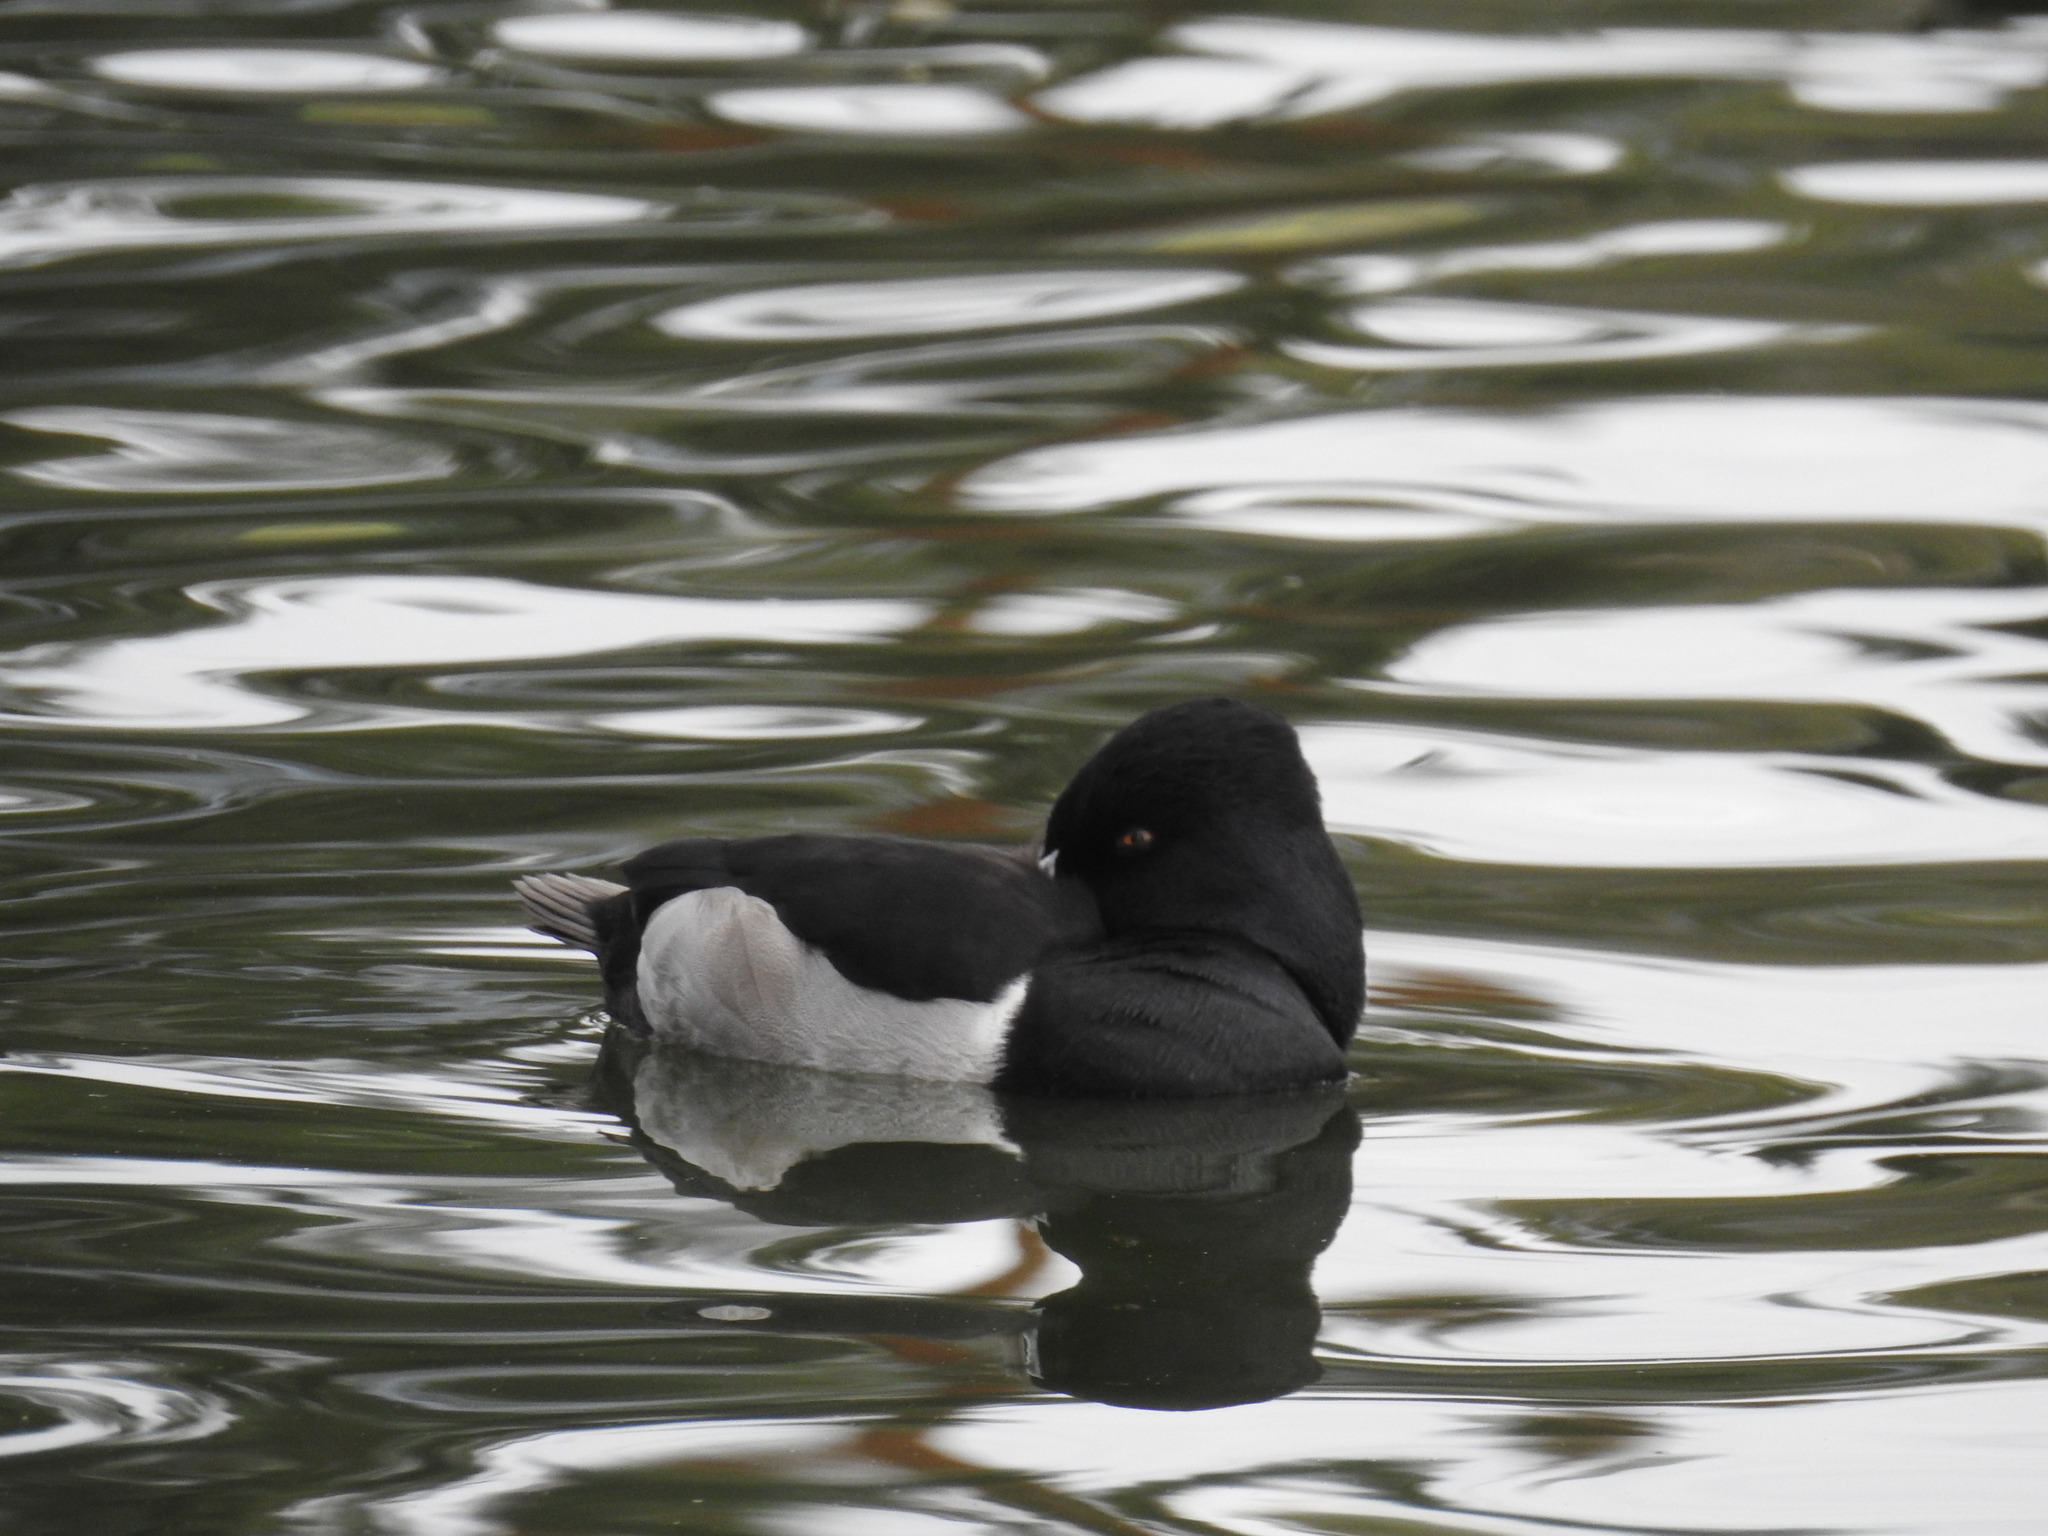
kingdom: Animalia
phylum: Chordata
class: Aves
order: Anseriformes
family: Anatidae
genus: Aythya
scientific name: Aythya collaris
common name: Ring-necked duck
